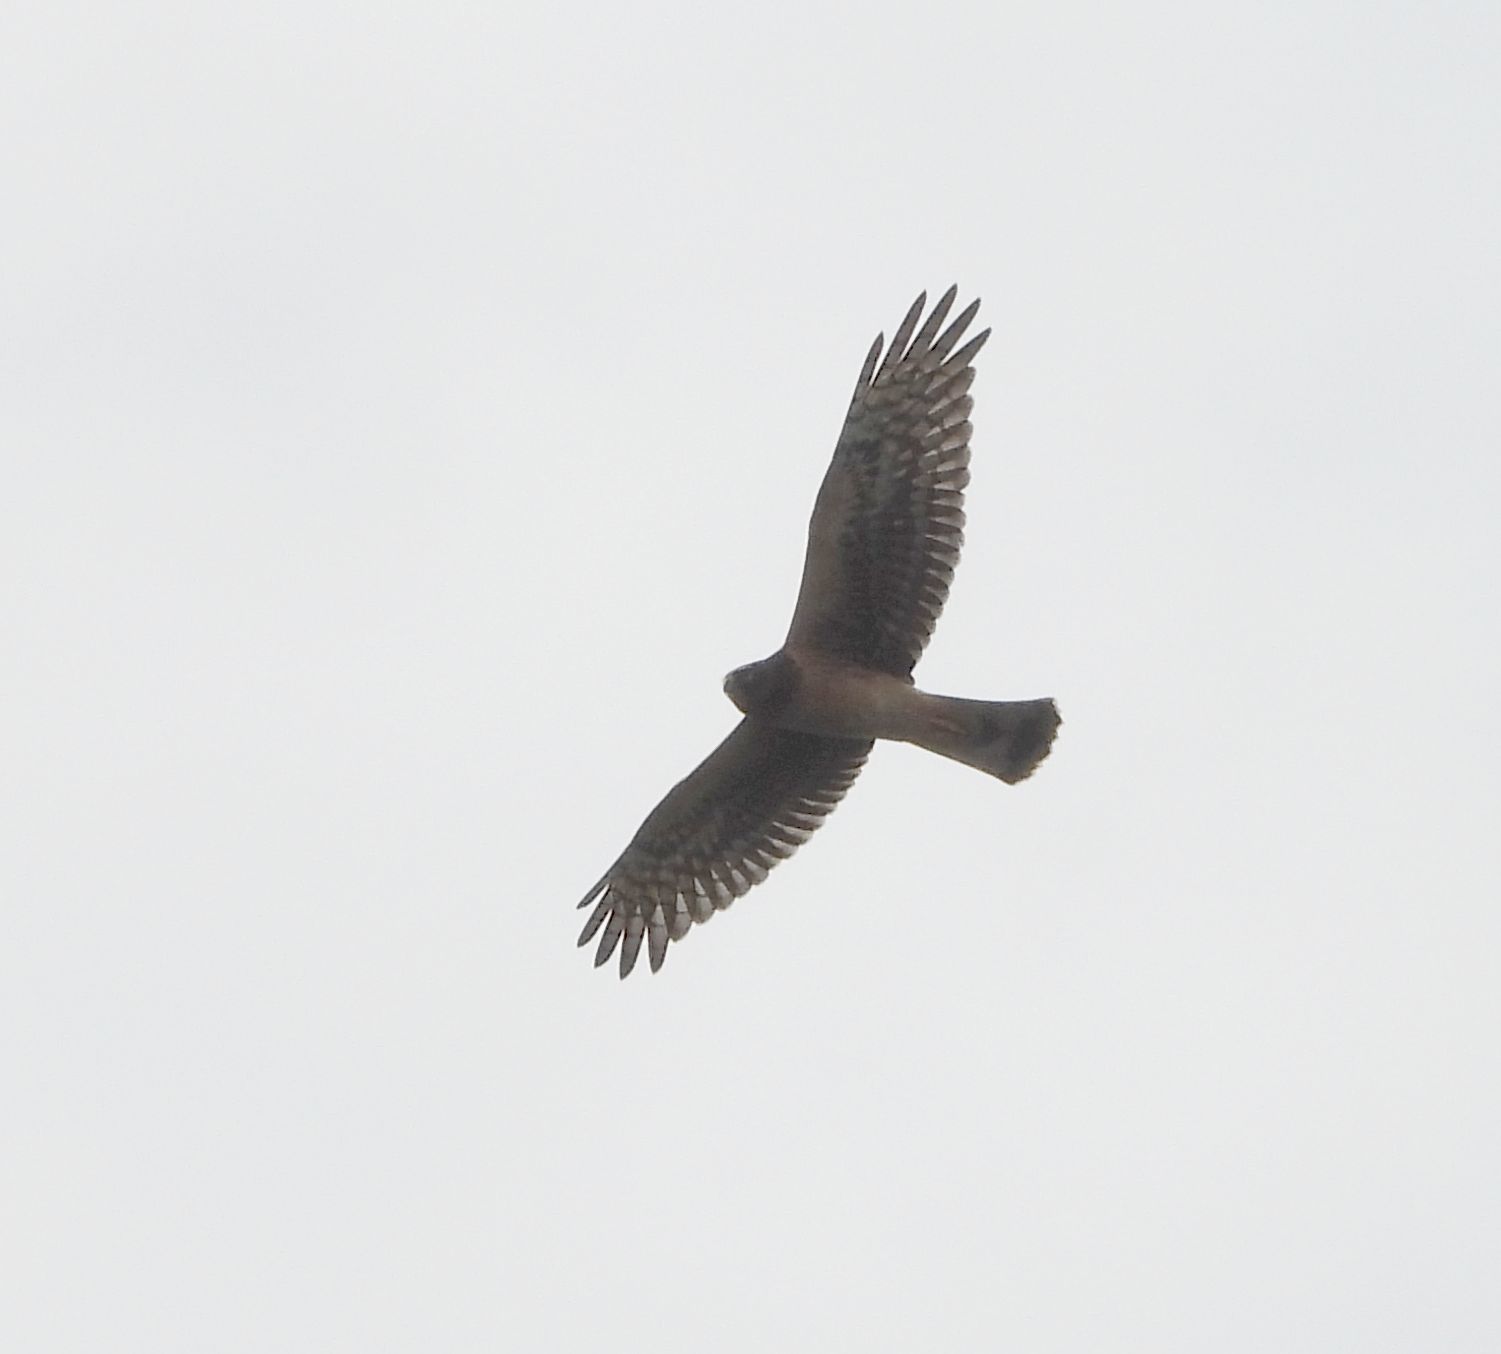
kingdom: Animalia
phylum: Chordata
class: Aves
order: Accipitriformes
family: Accipitridae
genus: Circus
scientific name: Circus cyaneus
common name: Hen harrier
